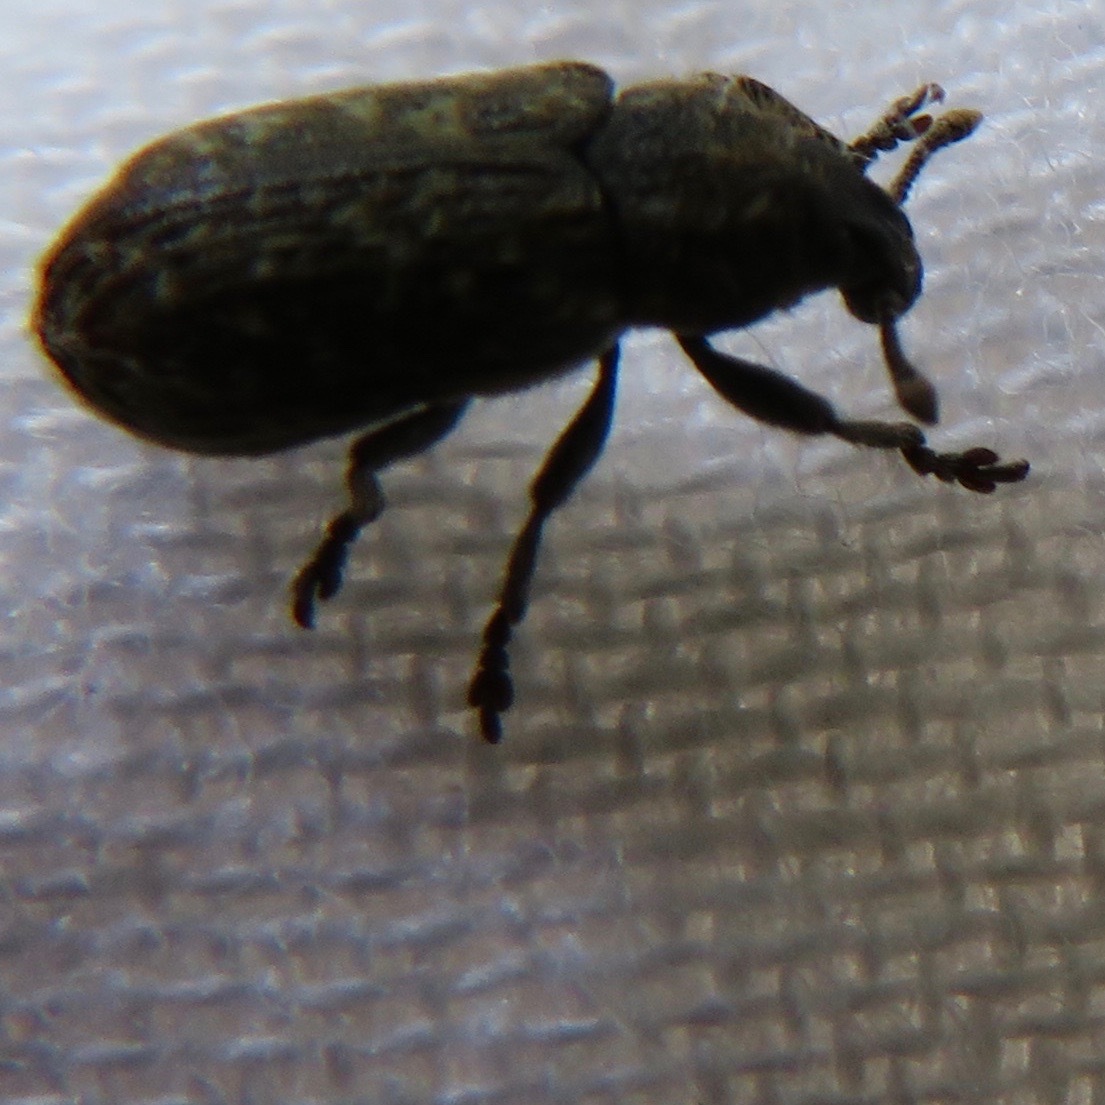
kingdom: Animalia
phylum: Arthropoda
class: Insecta
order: Coleoptera
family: Curculionidae
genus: Rhinocyllus
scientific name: Rhinocyllus conicus
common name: Weevil
